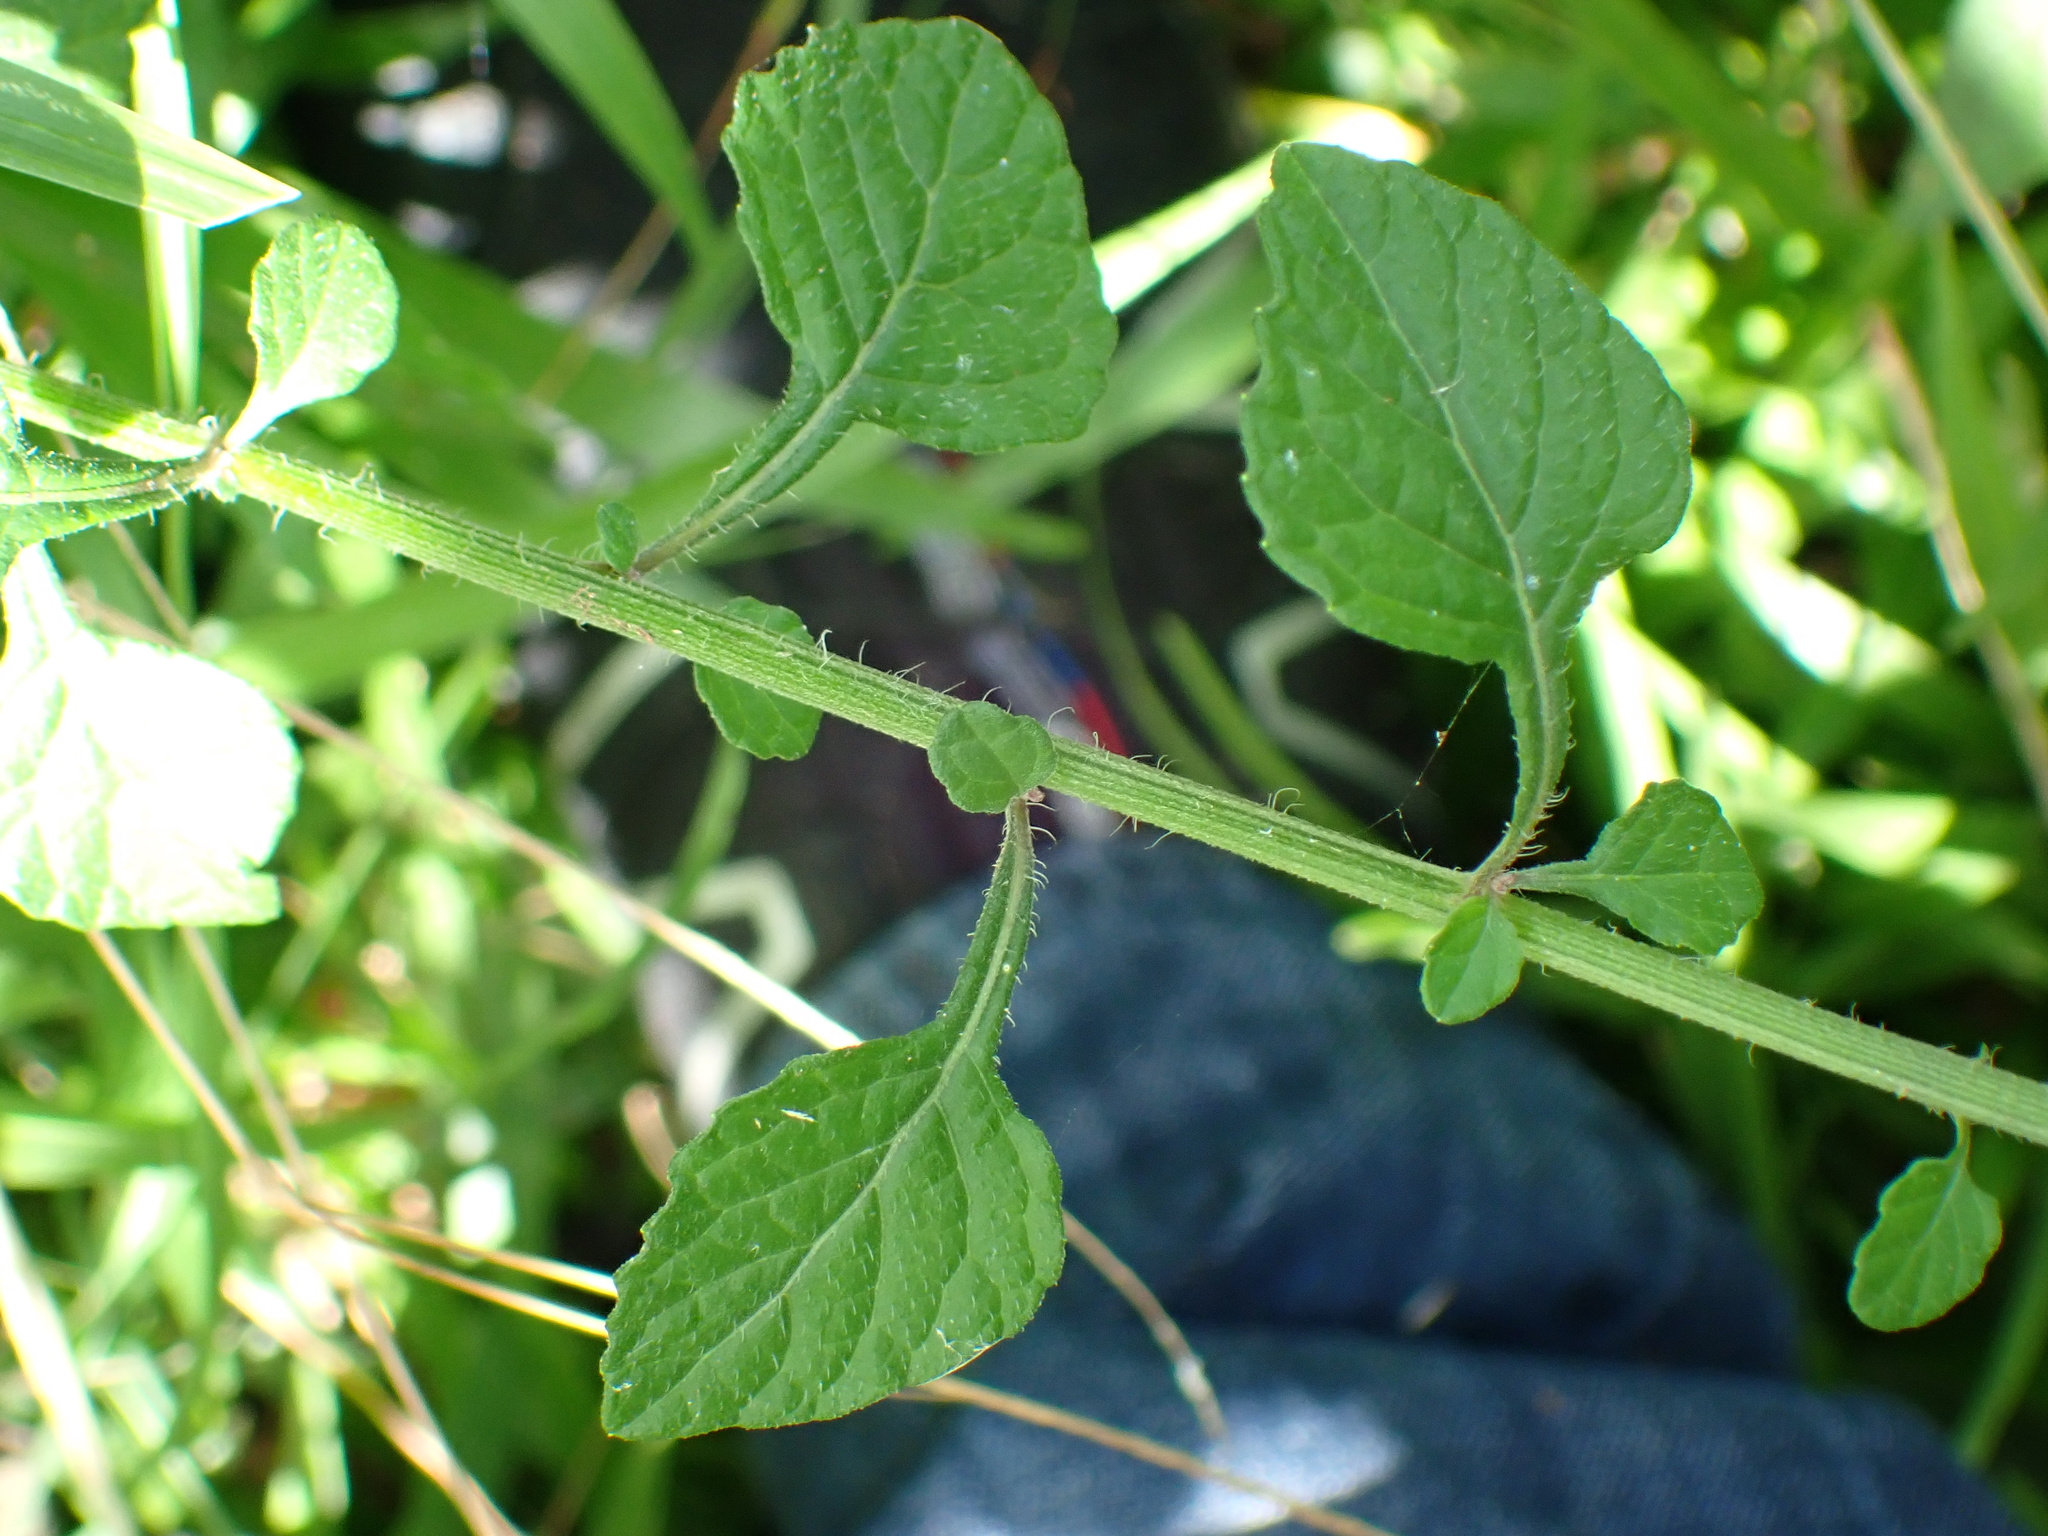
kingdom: Plantae
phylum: Tracheophyta
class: Magnoliopsida
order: Asterales
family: Asteraceae
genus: Cyanthillium
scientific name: Cyanthillium cinereum
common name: Little ironweed
